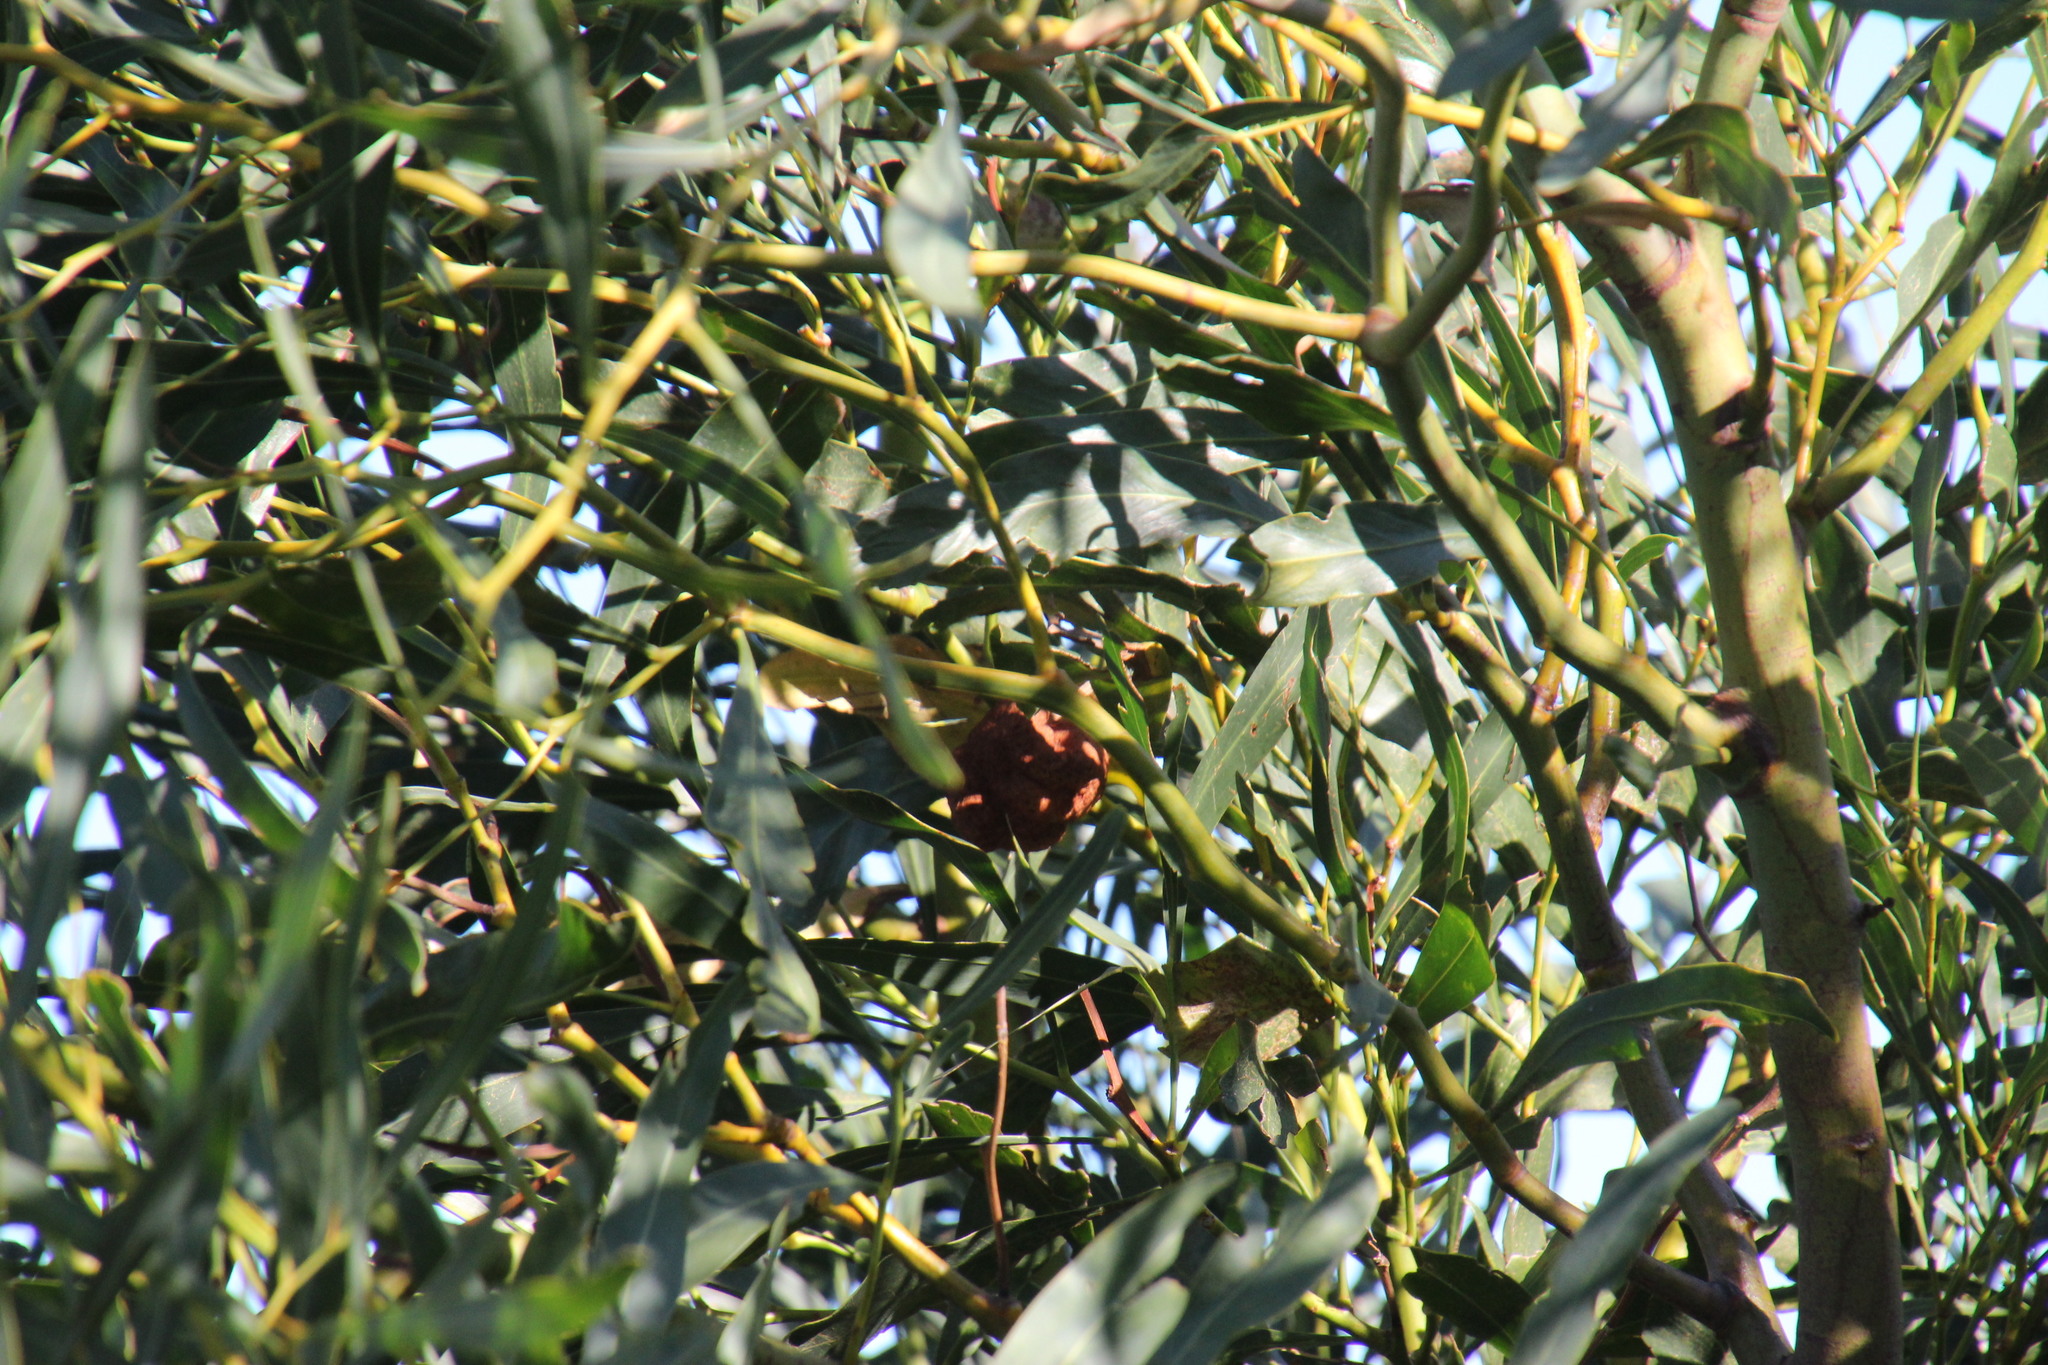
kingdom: Plantae
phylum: Tracheophyta
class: Magnoliopsida
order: Fabales
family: Fabaceae
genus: Acacia
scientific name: Acacia saligna
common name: Orange wattle
